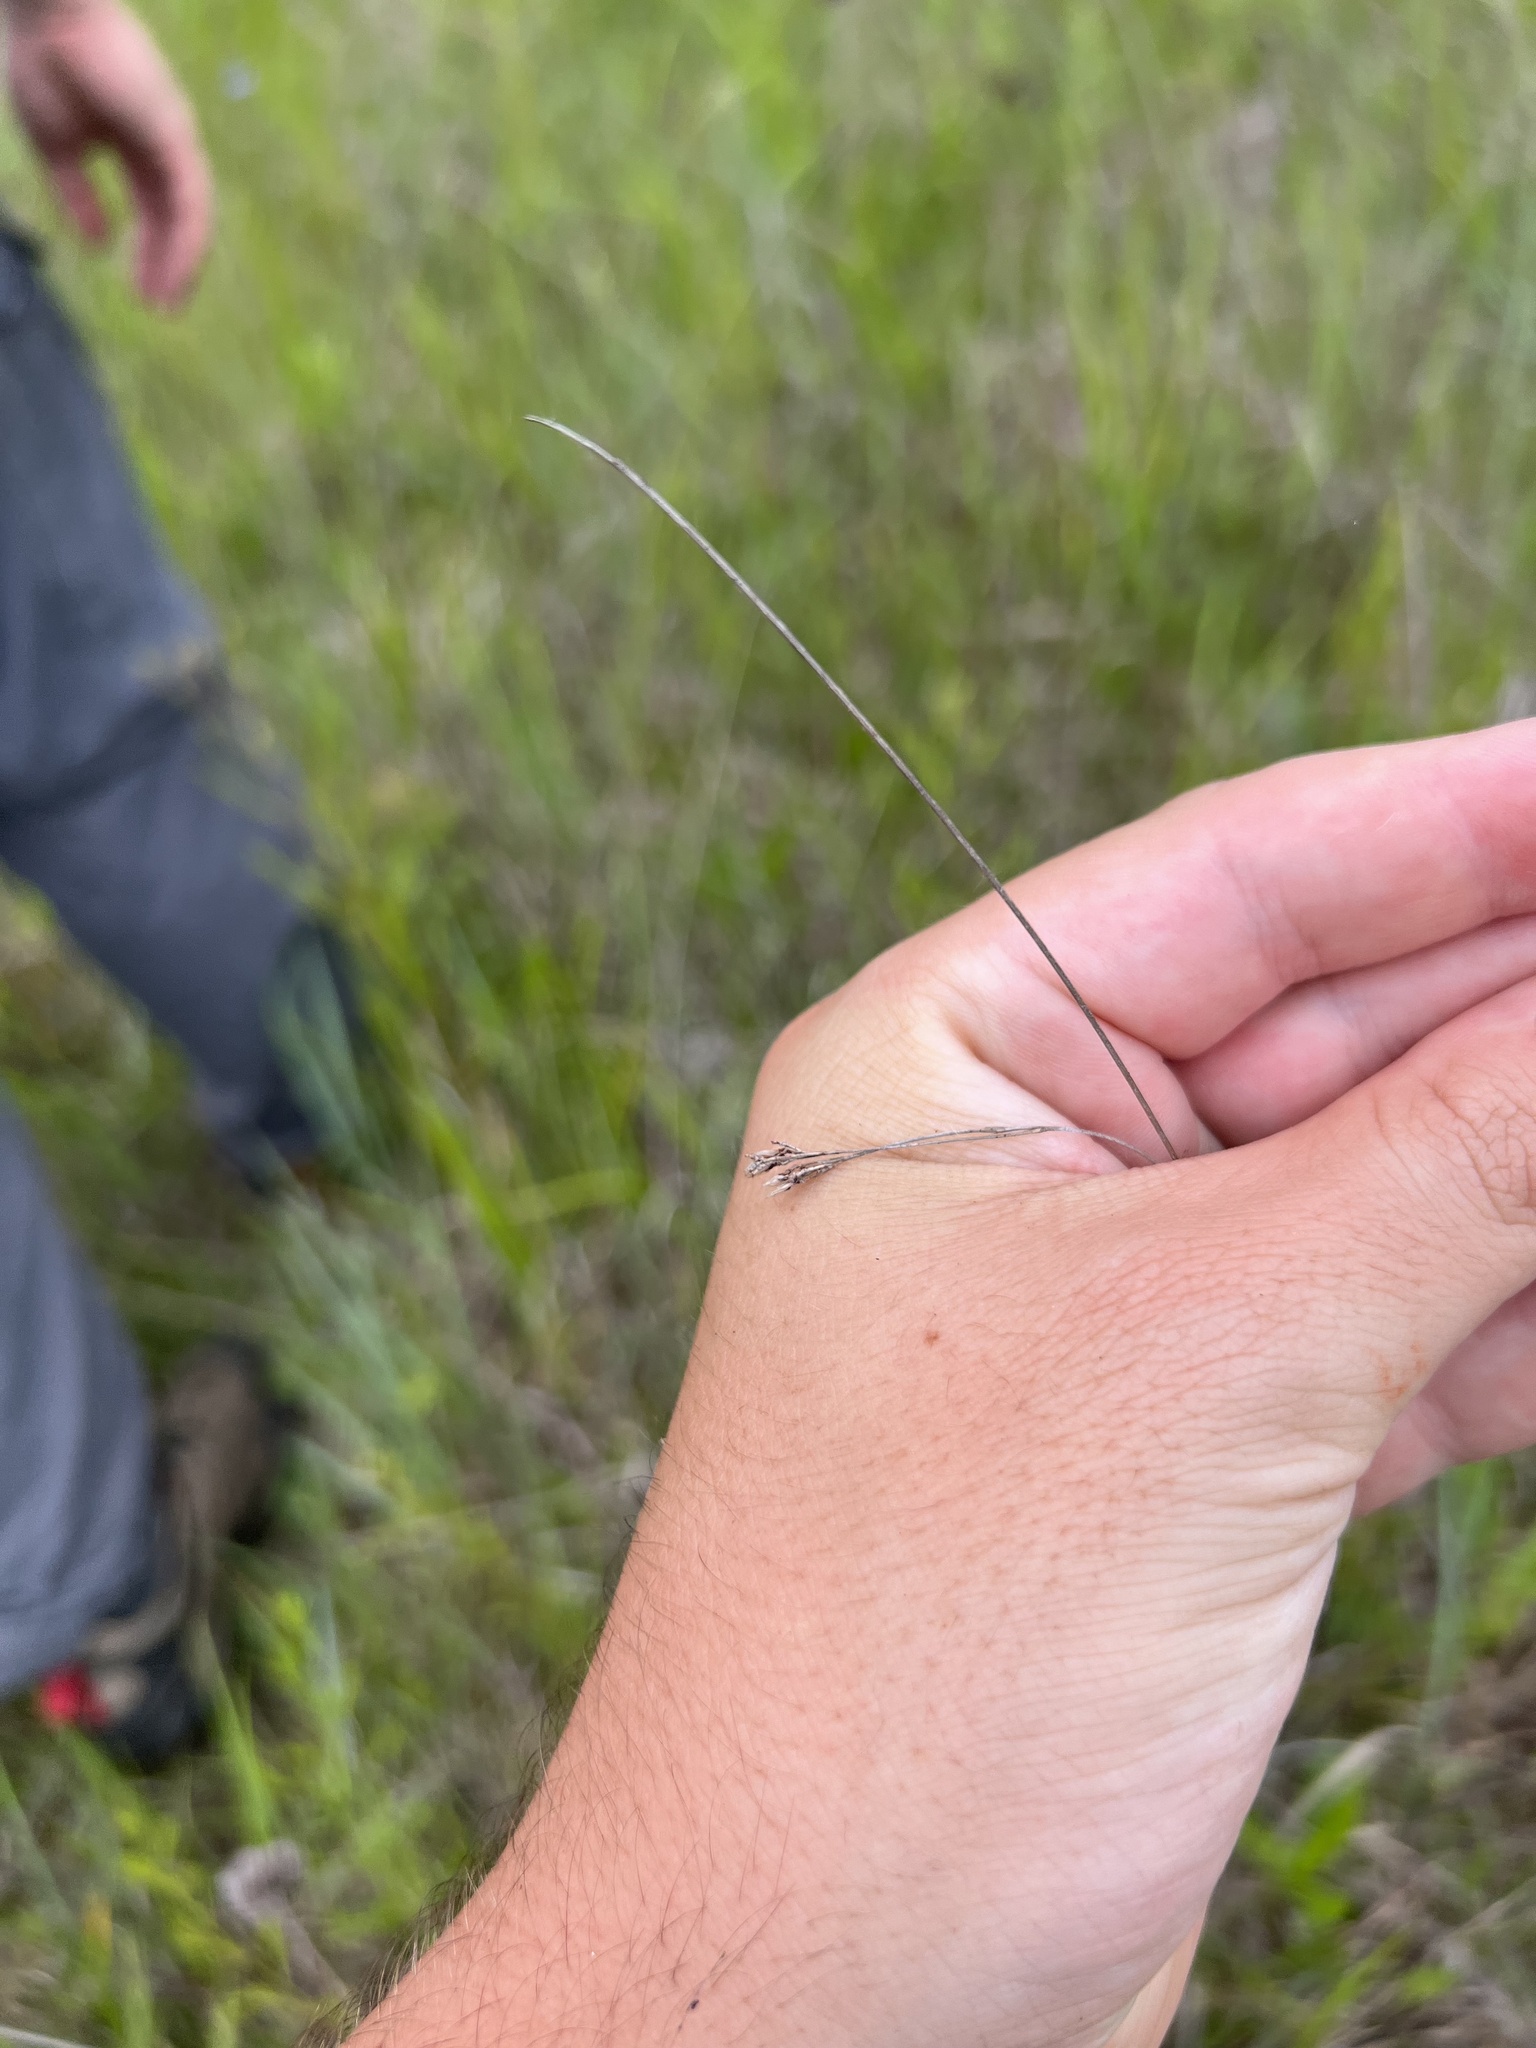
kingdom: Plantae
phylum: Tracheophyta
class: Liliopsida
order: Poales
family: Cyperaceae
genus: Rhynchospora
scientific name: Rhynchospora caduca
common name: Anglestem beaksedge
